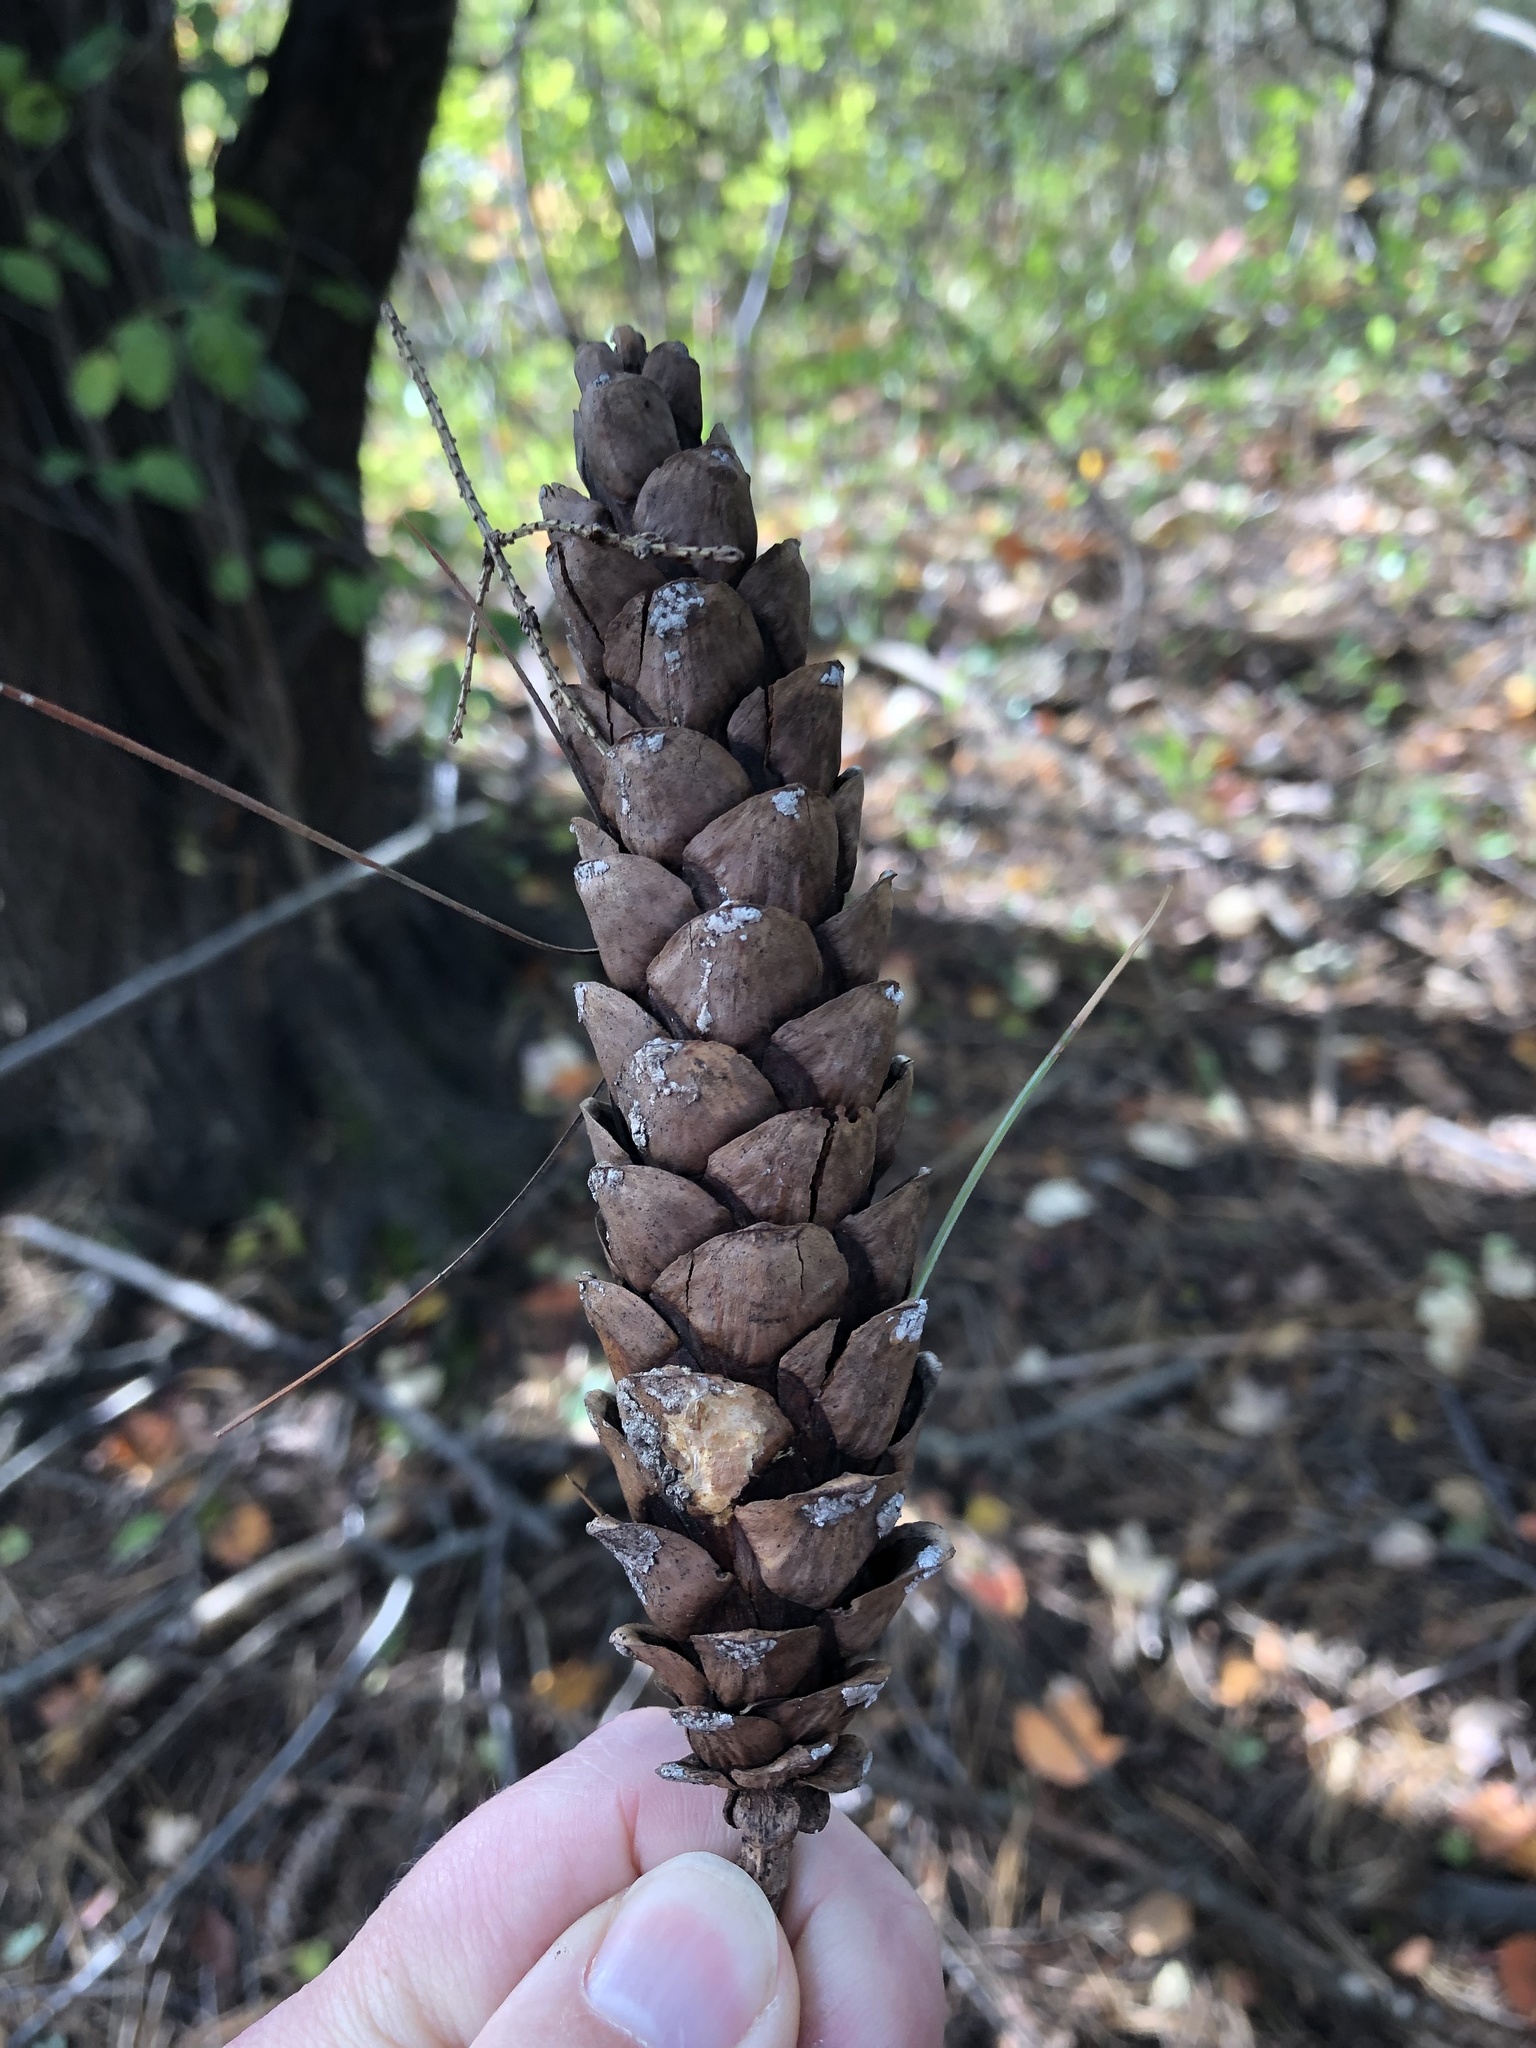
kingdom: Plantae
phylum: Tracheophyta
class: Pinopsida
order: Pinales
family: Pinaceae
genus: Pinus
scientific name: Pinus strobus
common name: Weymouth pine
